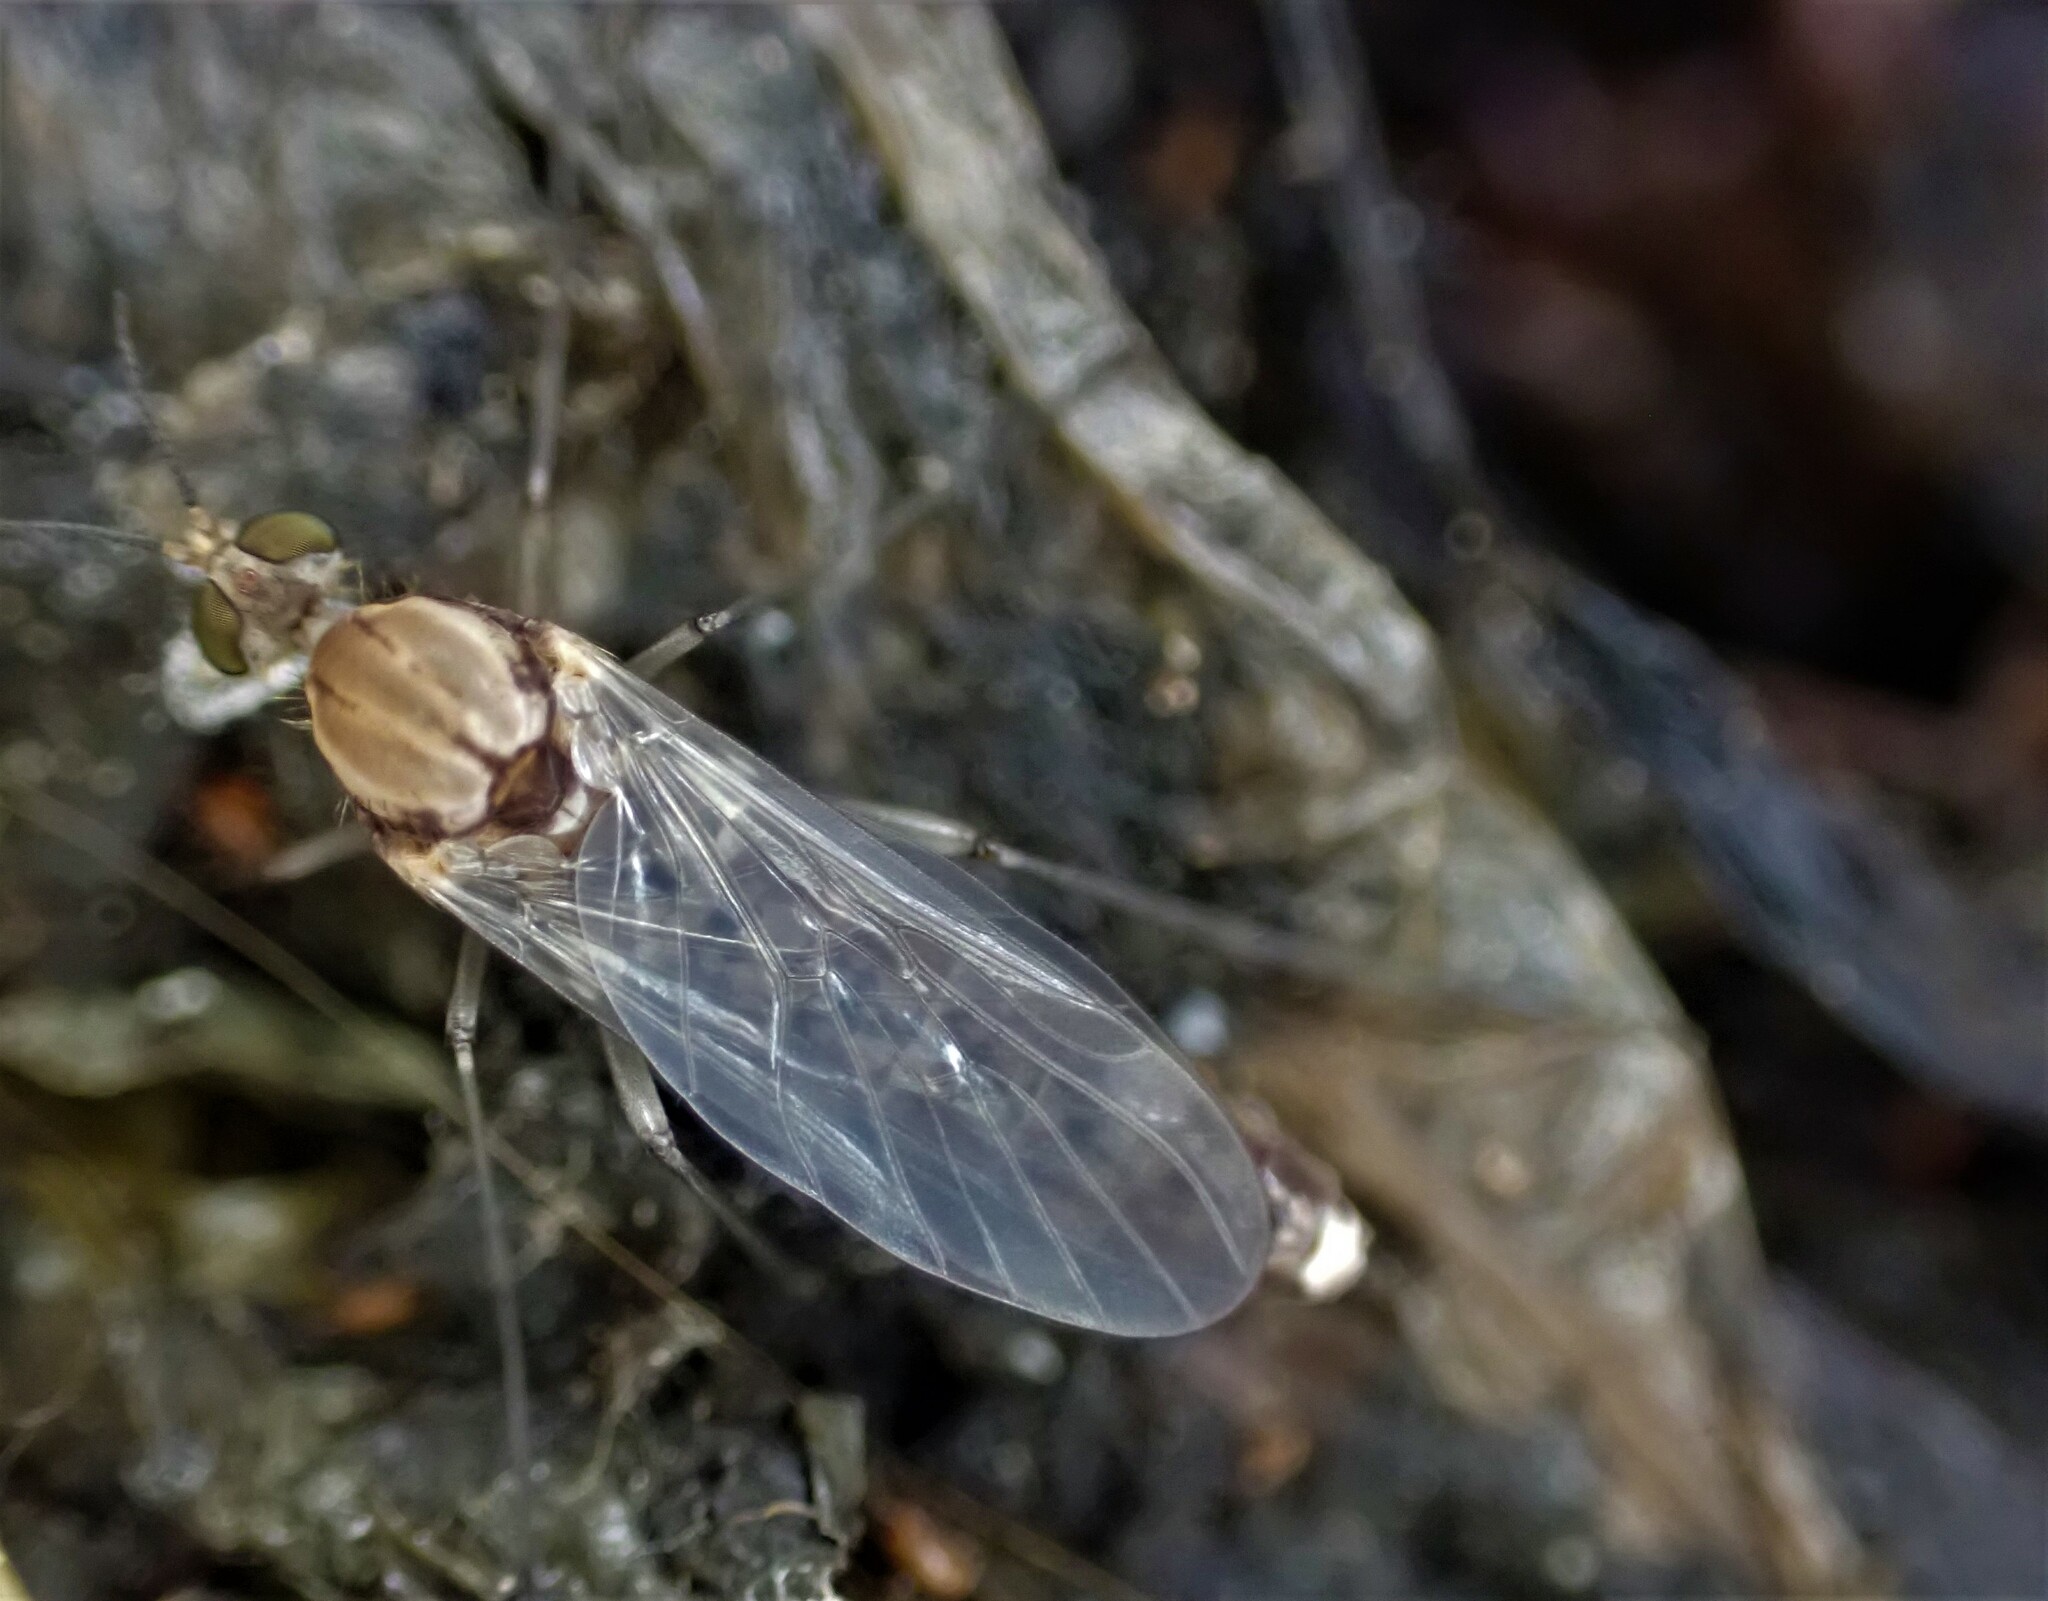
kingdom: Animalia
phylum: Arthropoda
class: Insecta
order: Diptera
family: Anisopodidae
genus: Sylvicola
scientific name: Sylvicola notatus
